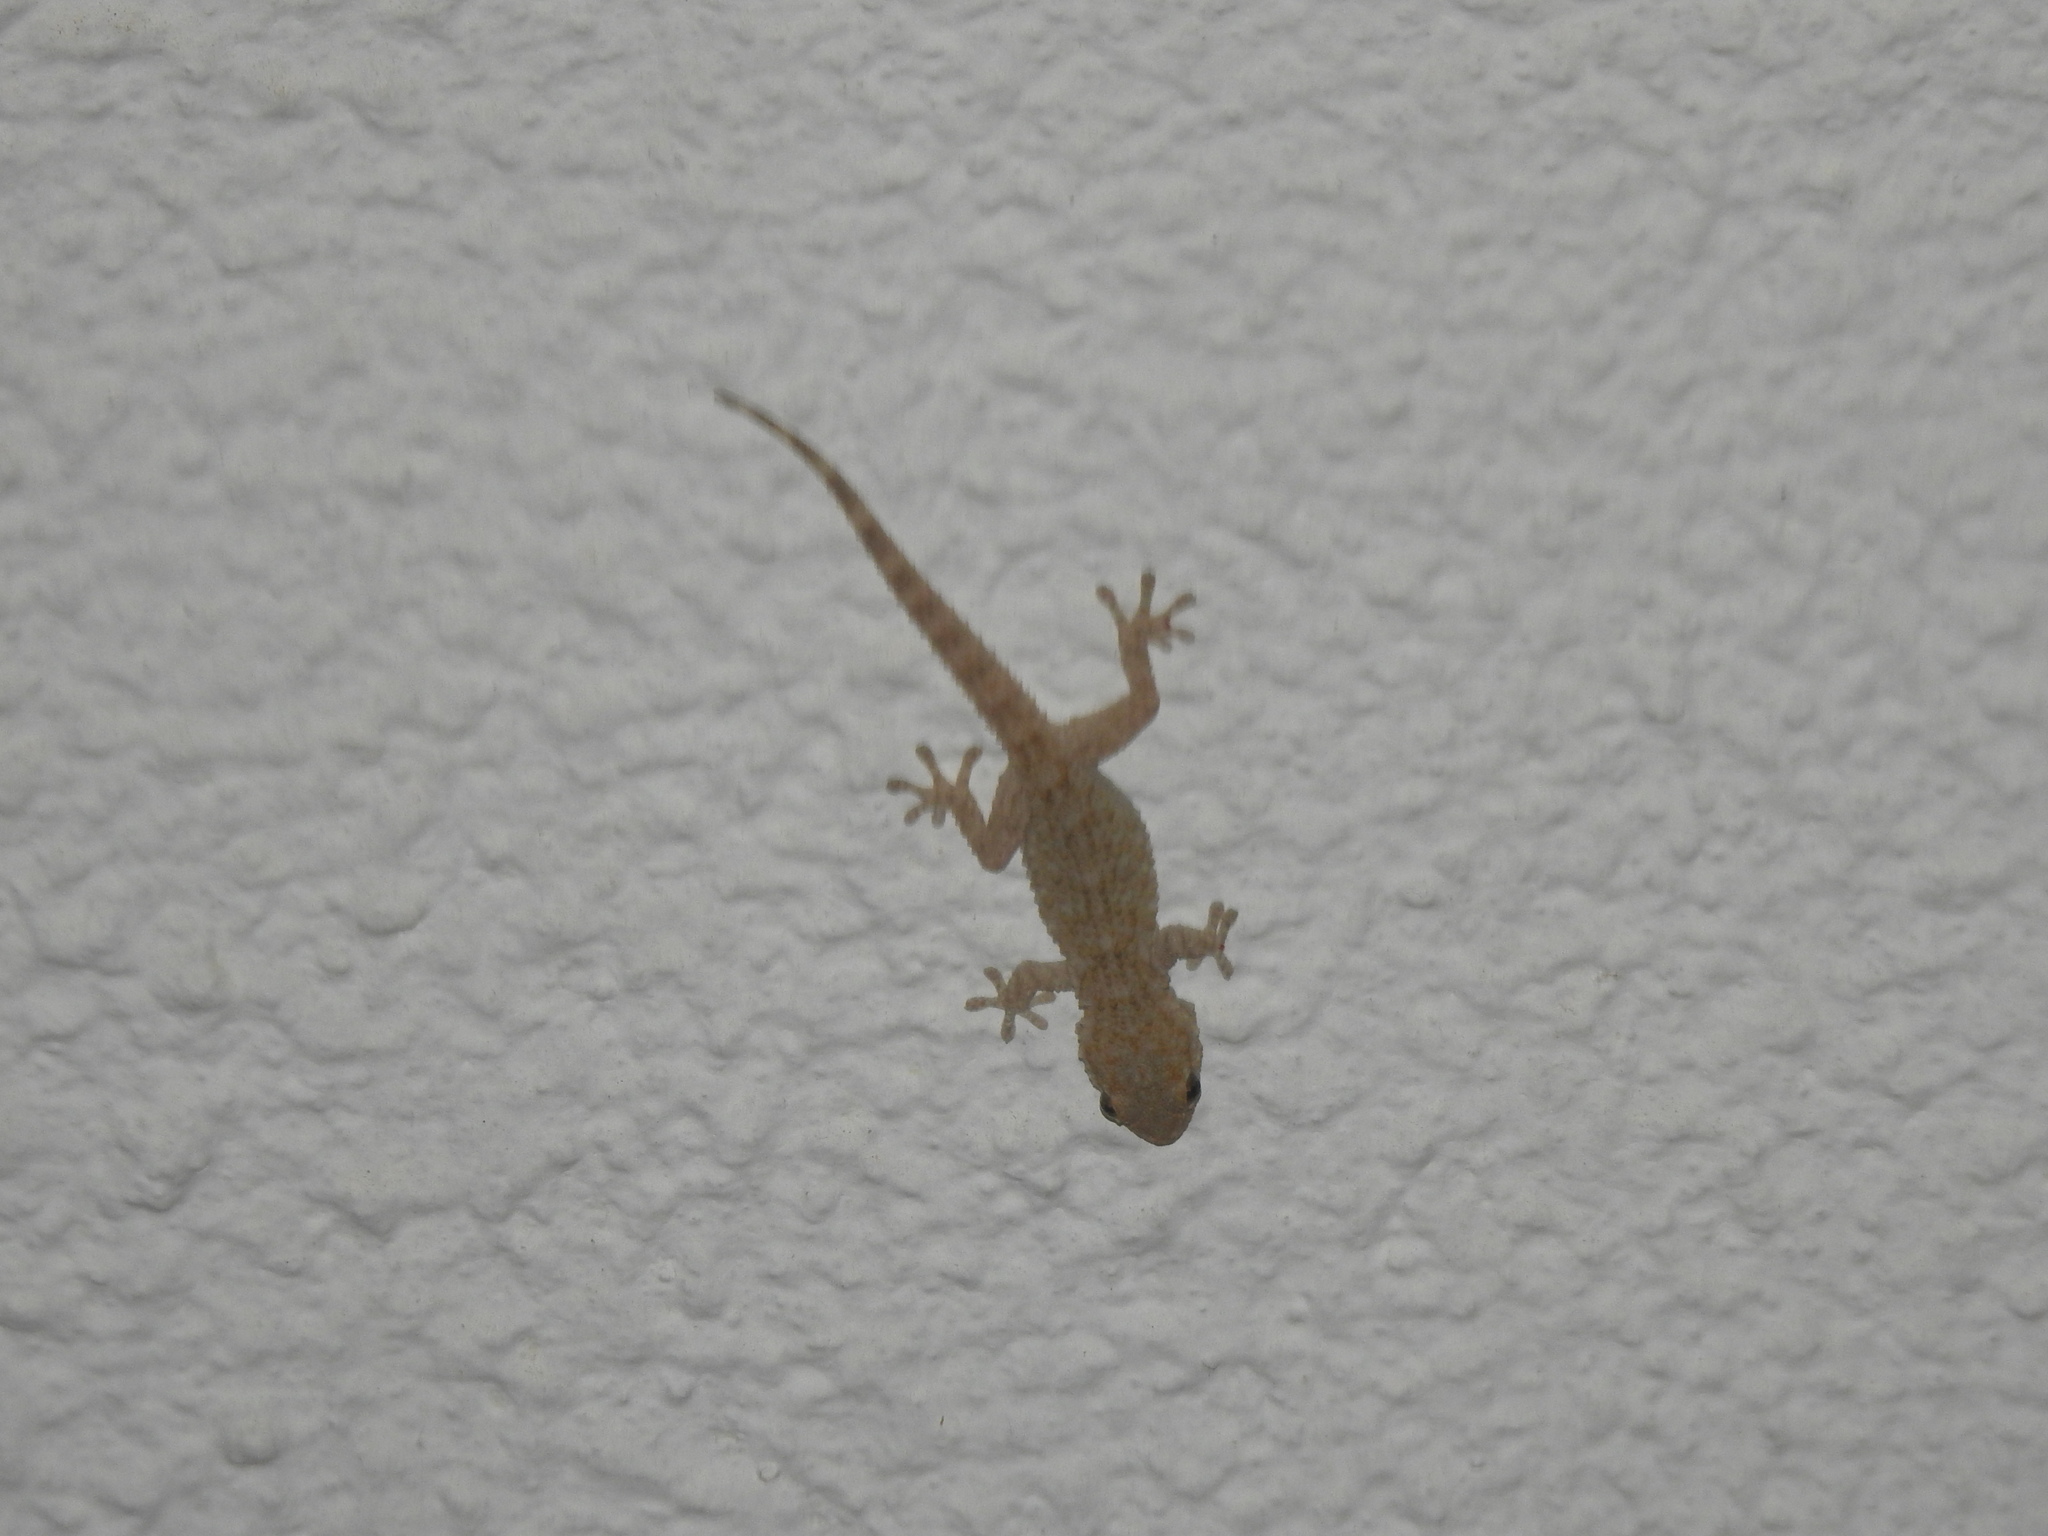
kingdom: Animalia
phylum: Chordata
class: Squamata
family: Phyllodactylidae
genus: Tarentola
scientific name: Tarentola mauritanica
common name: Moorish gecko
